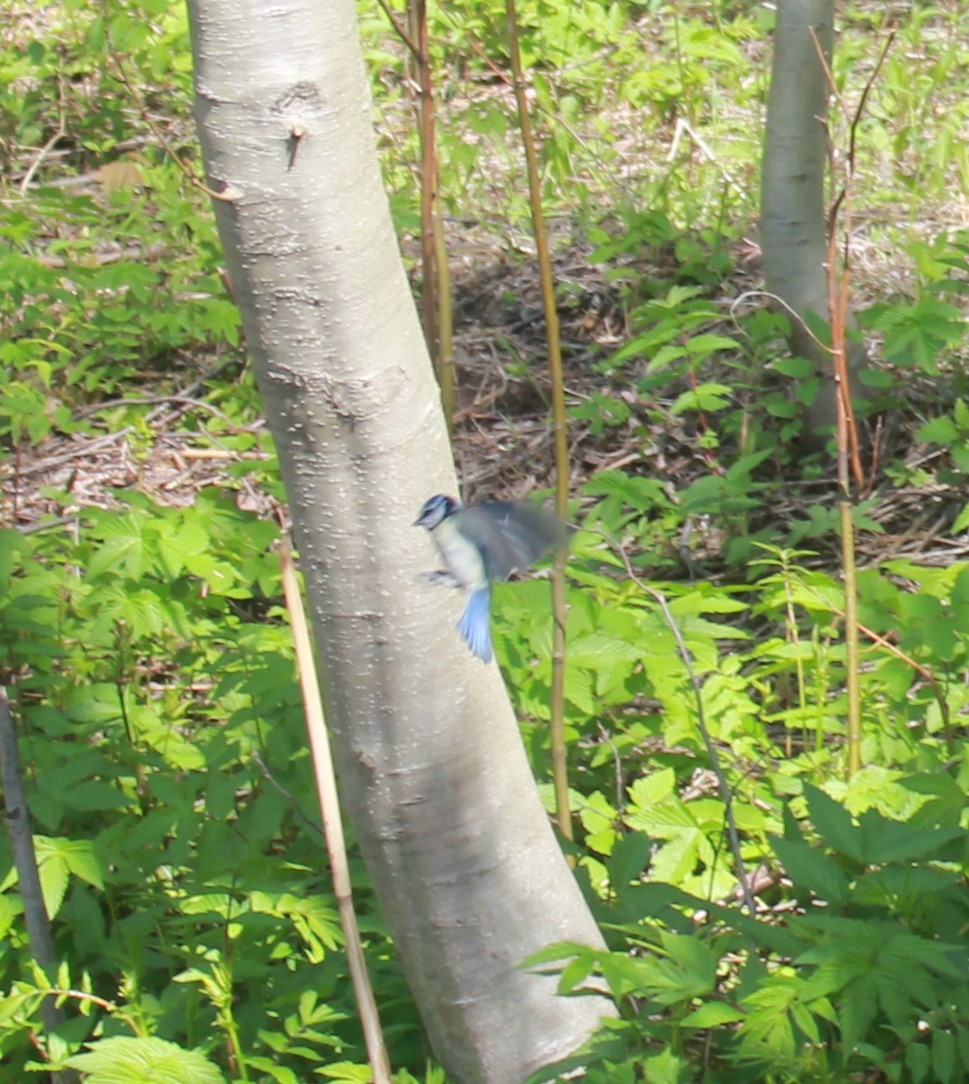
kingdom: Animalia
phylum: Chordata
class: Aves
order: Passeriformes
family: Paridae
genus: Cyanistes
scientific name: Cyanistes caeruleus
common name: Eurasian blue tit
